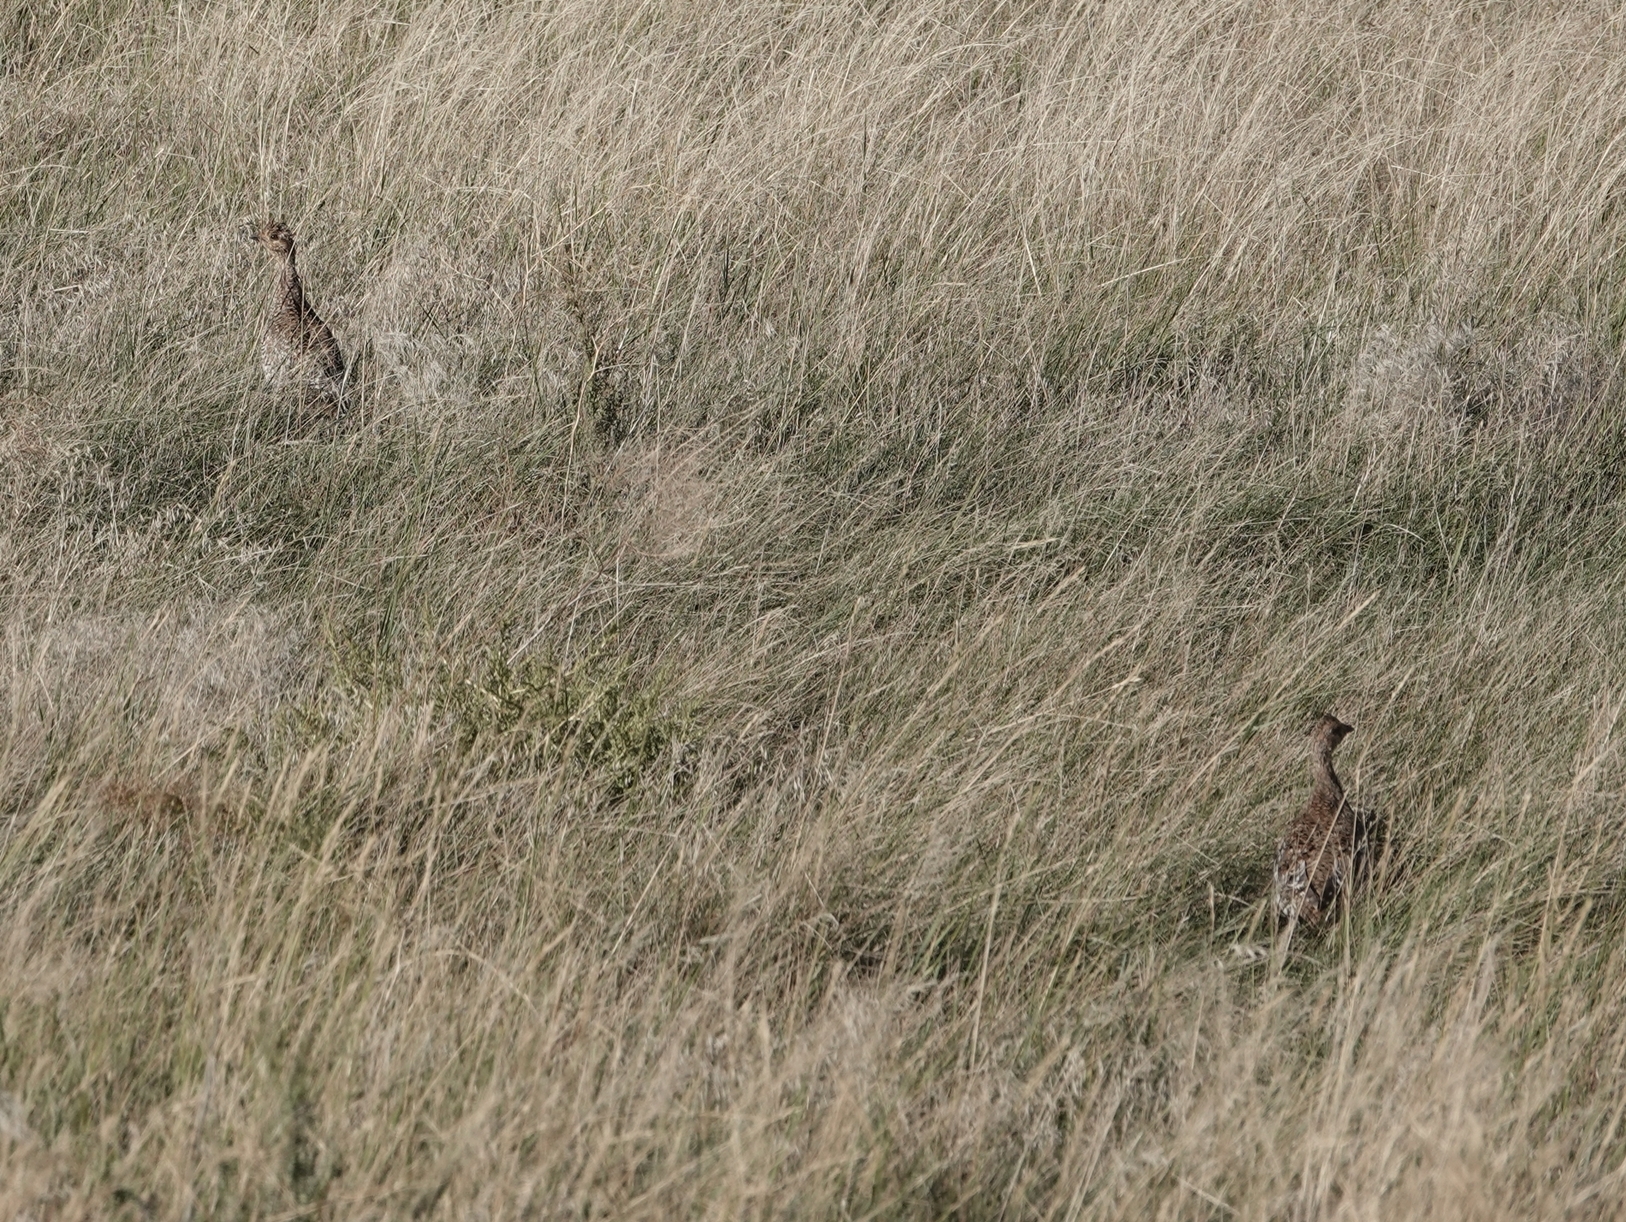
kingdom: Animalia
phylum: Chordata
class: Aves
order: Galliformes
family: Phasianidae
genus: Tympanuchus
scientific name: Tympanuchus phasianellus
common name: Sharp-tailed grouse
